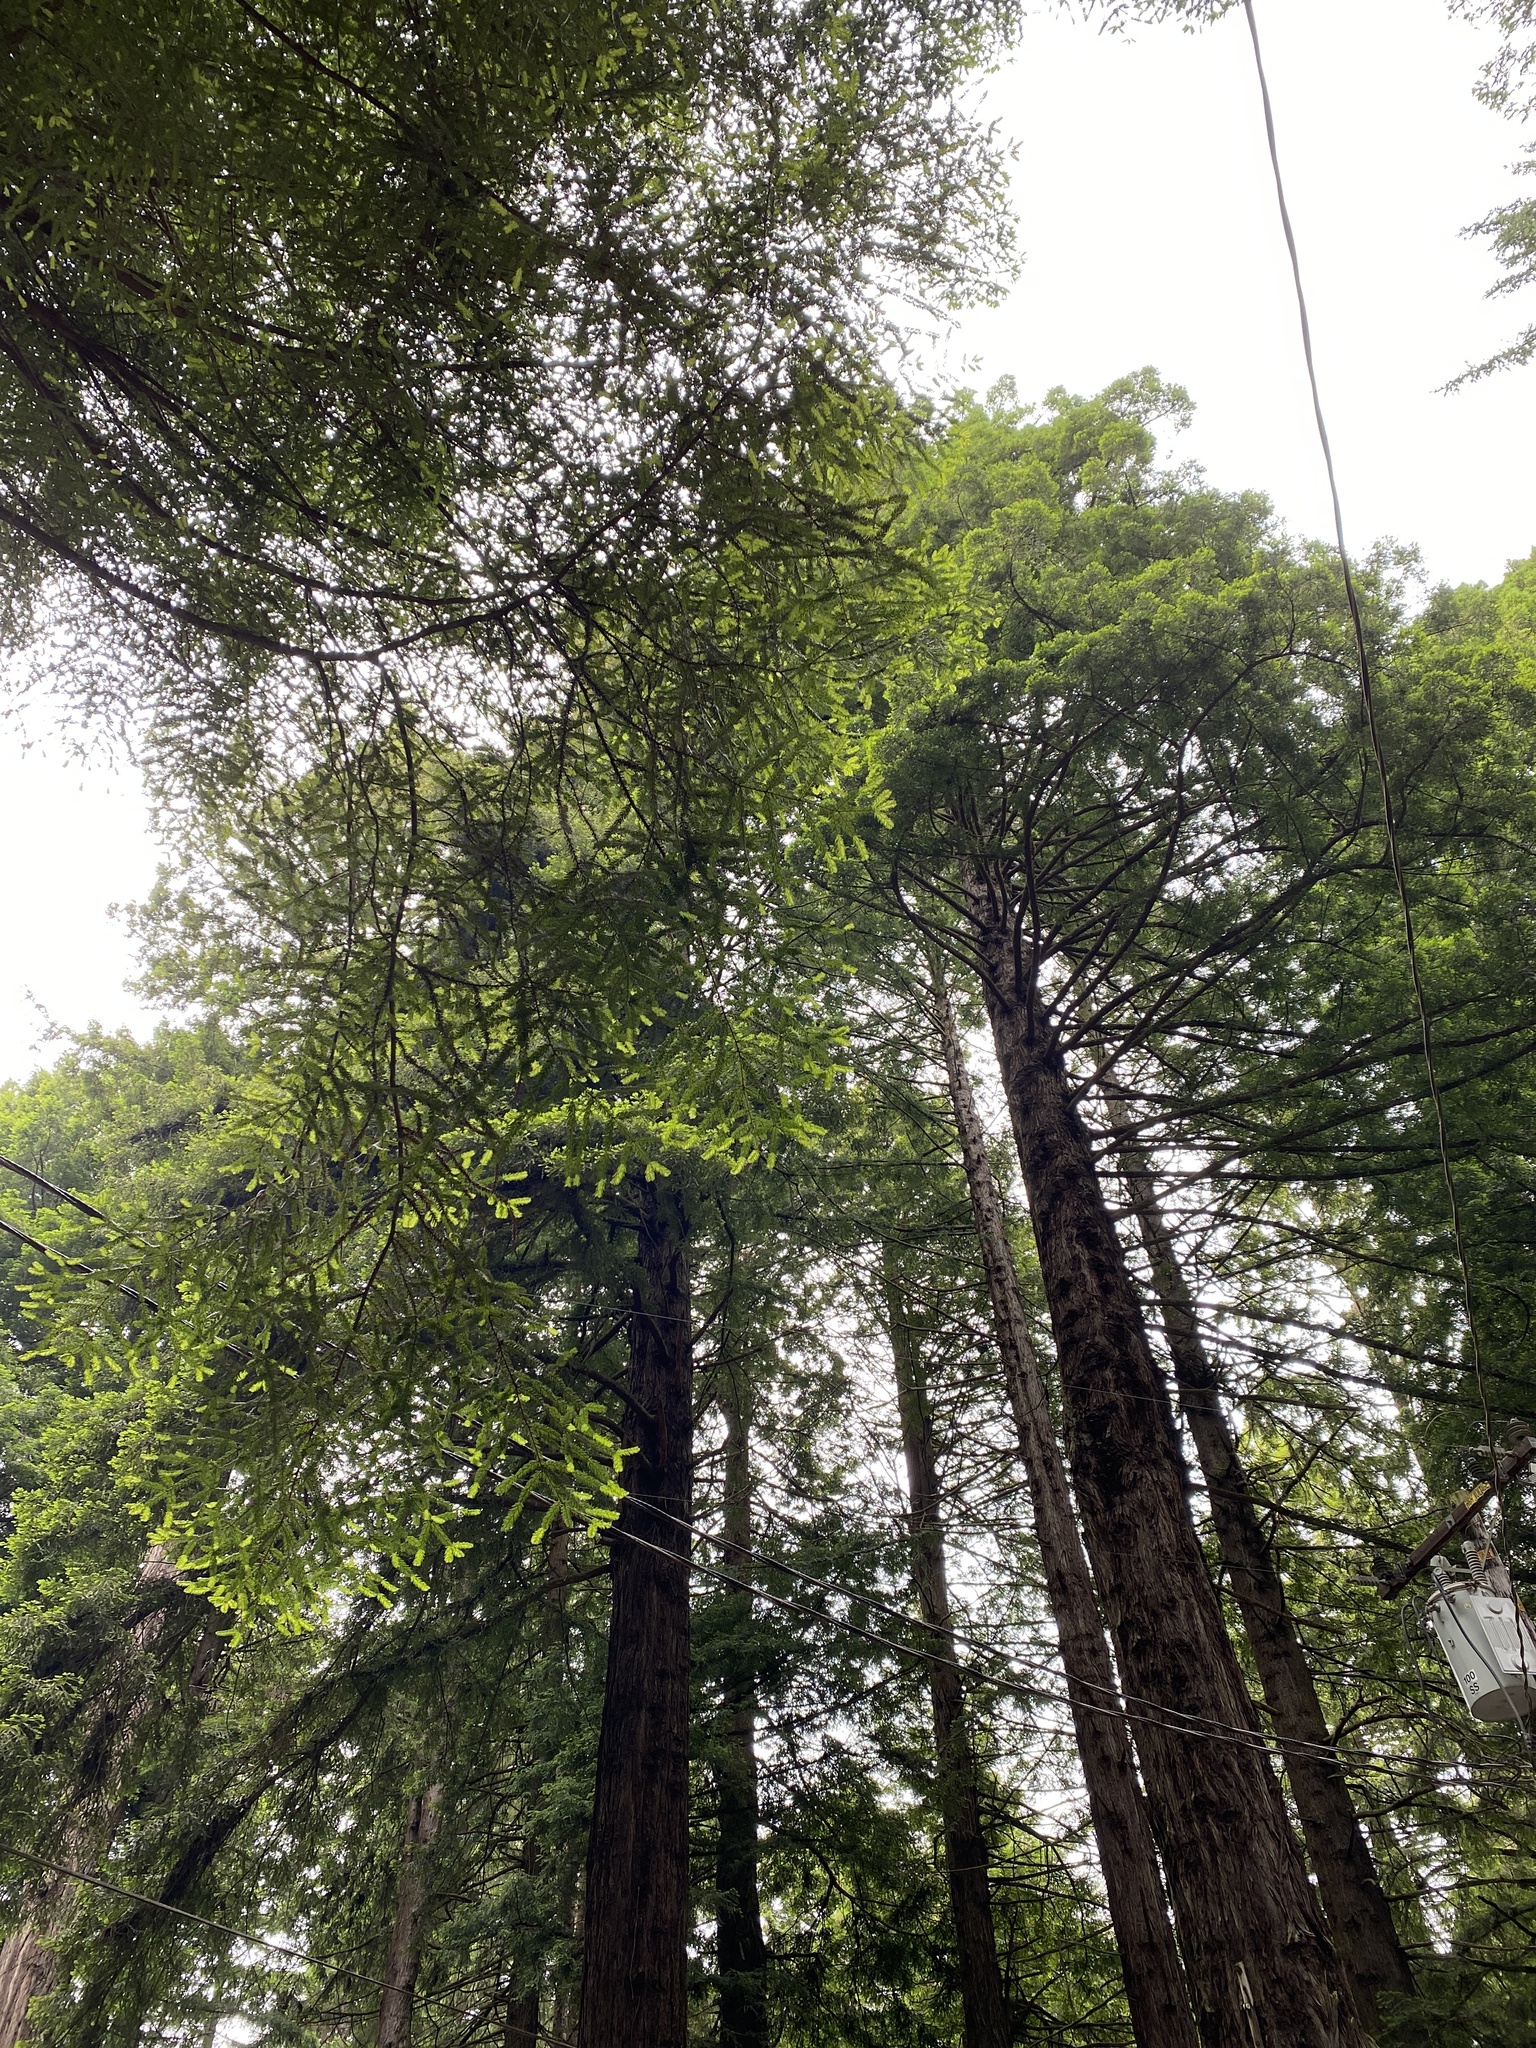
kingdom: Plantae
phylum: Tracheophyta
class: Pinopsida
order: Pinales
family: Cupressaceae
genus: Sequoia
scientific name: Sequoia sempervirens
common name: Coast redwood
